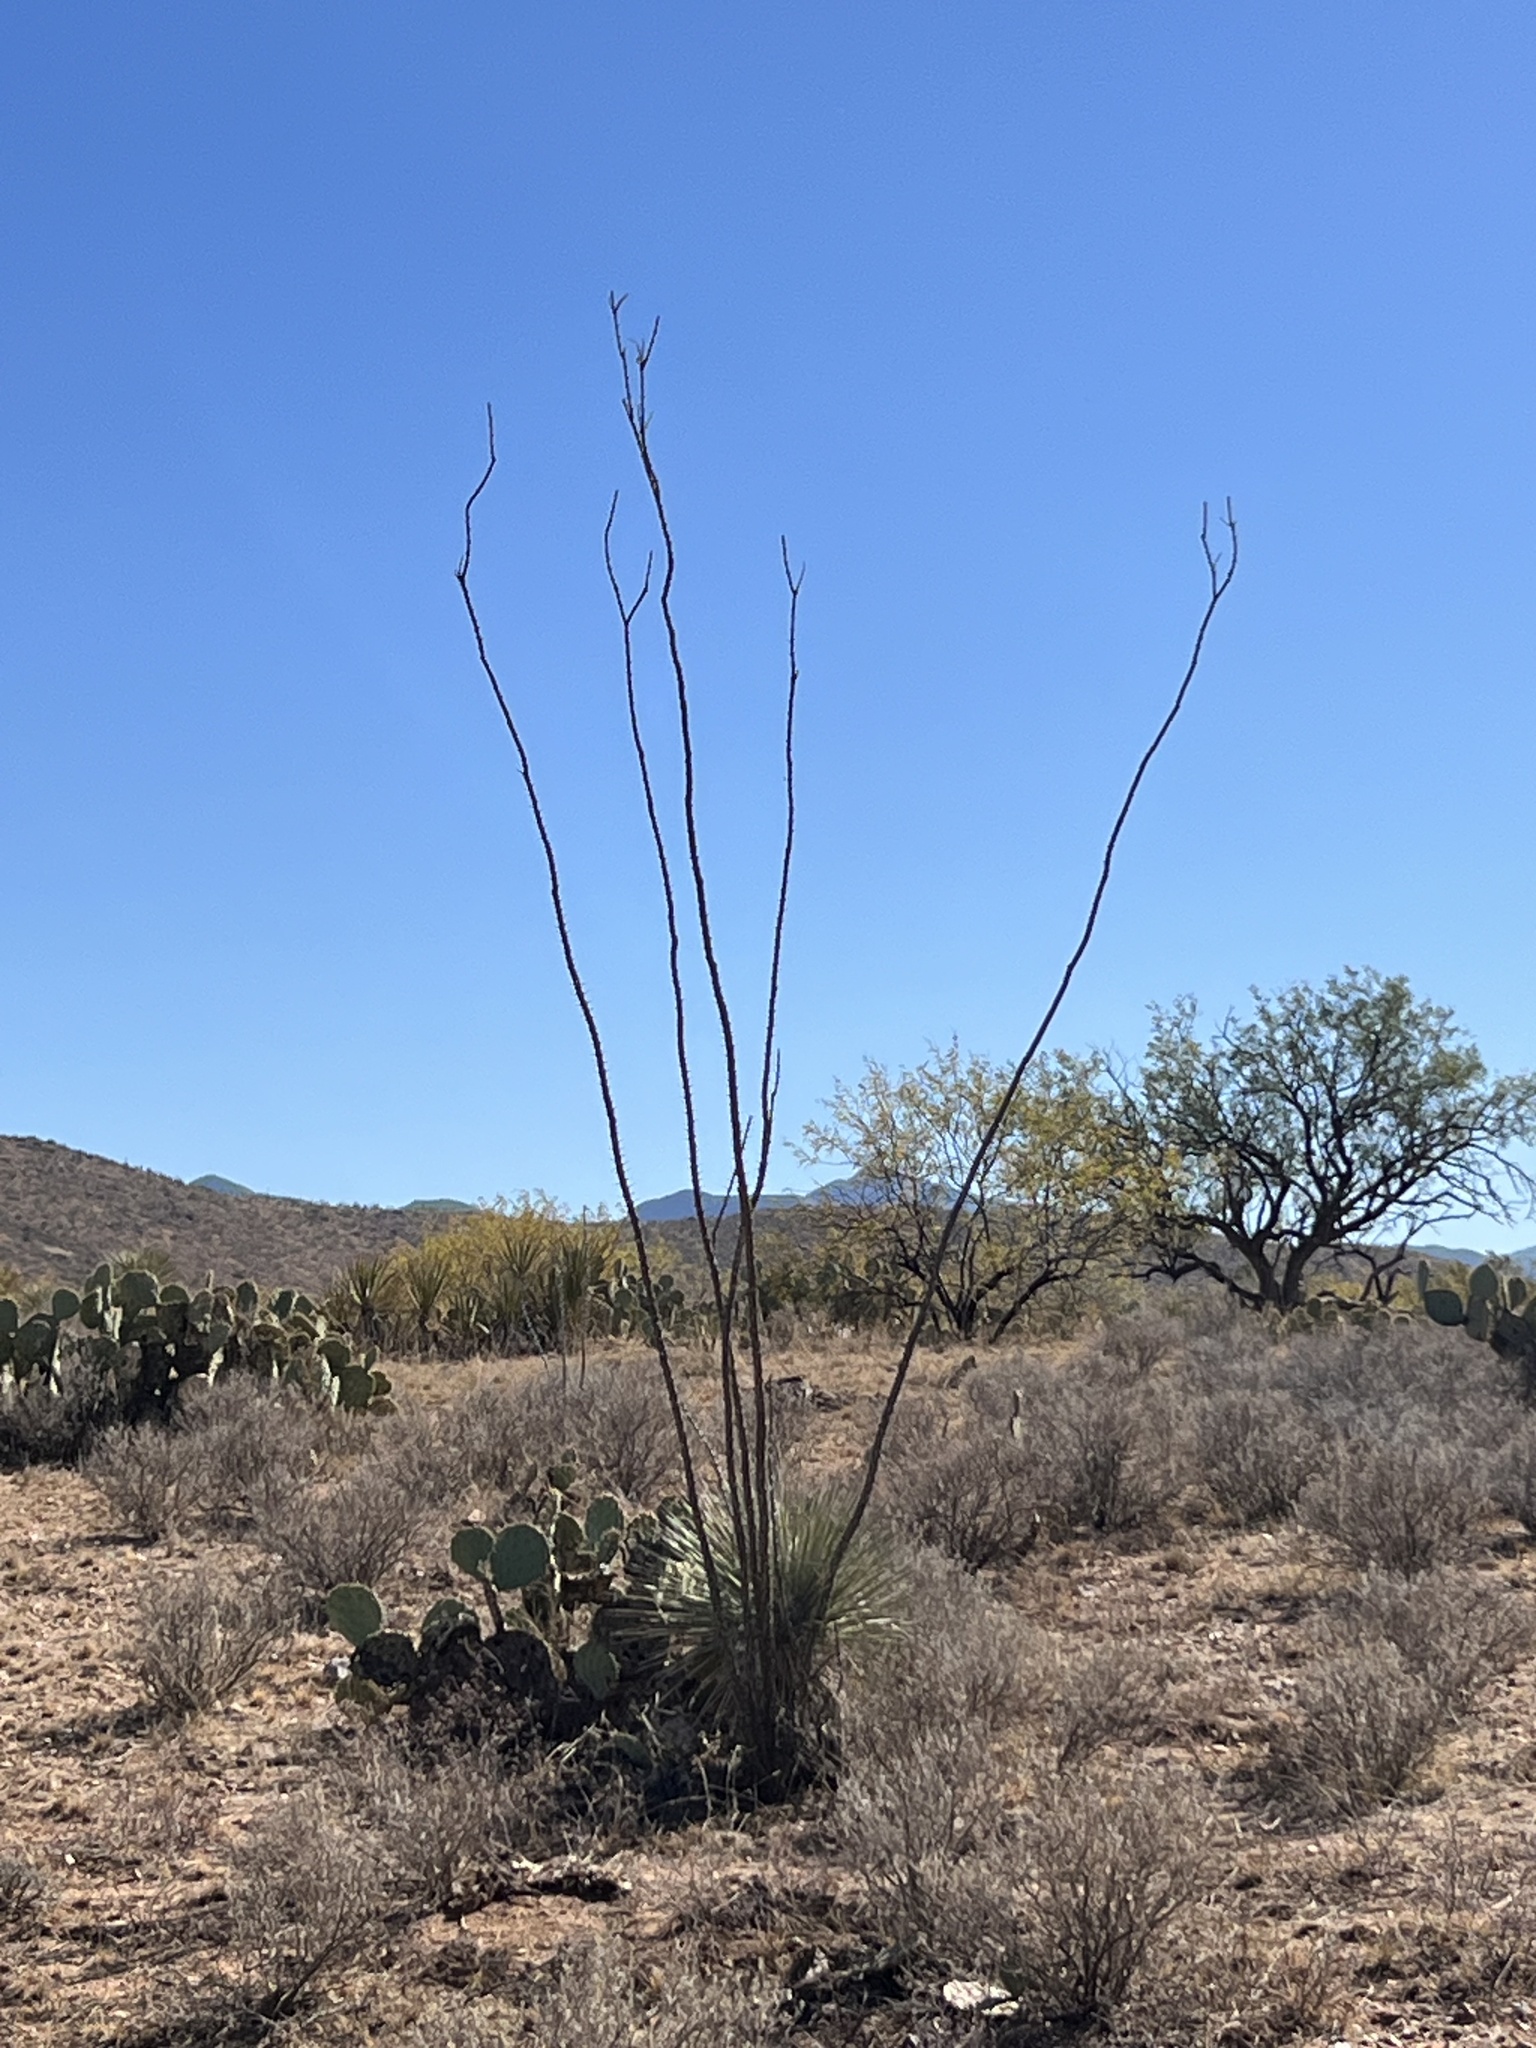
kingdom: Plantae
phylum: Tracheophyta
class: Magnoliopsida
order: Ericales
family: Fouquieriaceae
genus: Fouquieria
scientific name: Fouquieria splendens
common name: Vine-cactus
